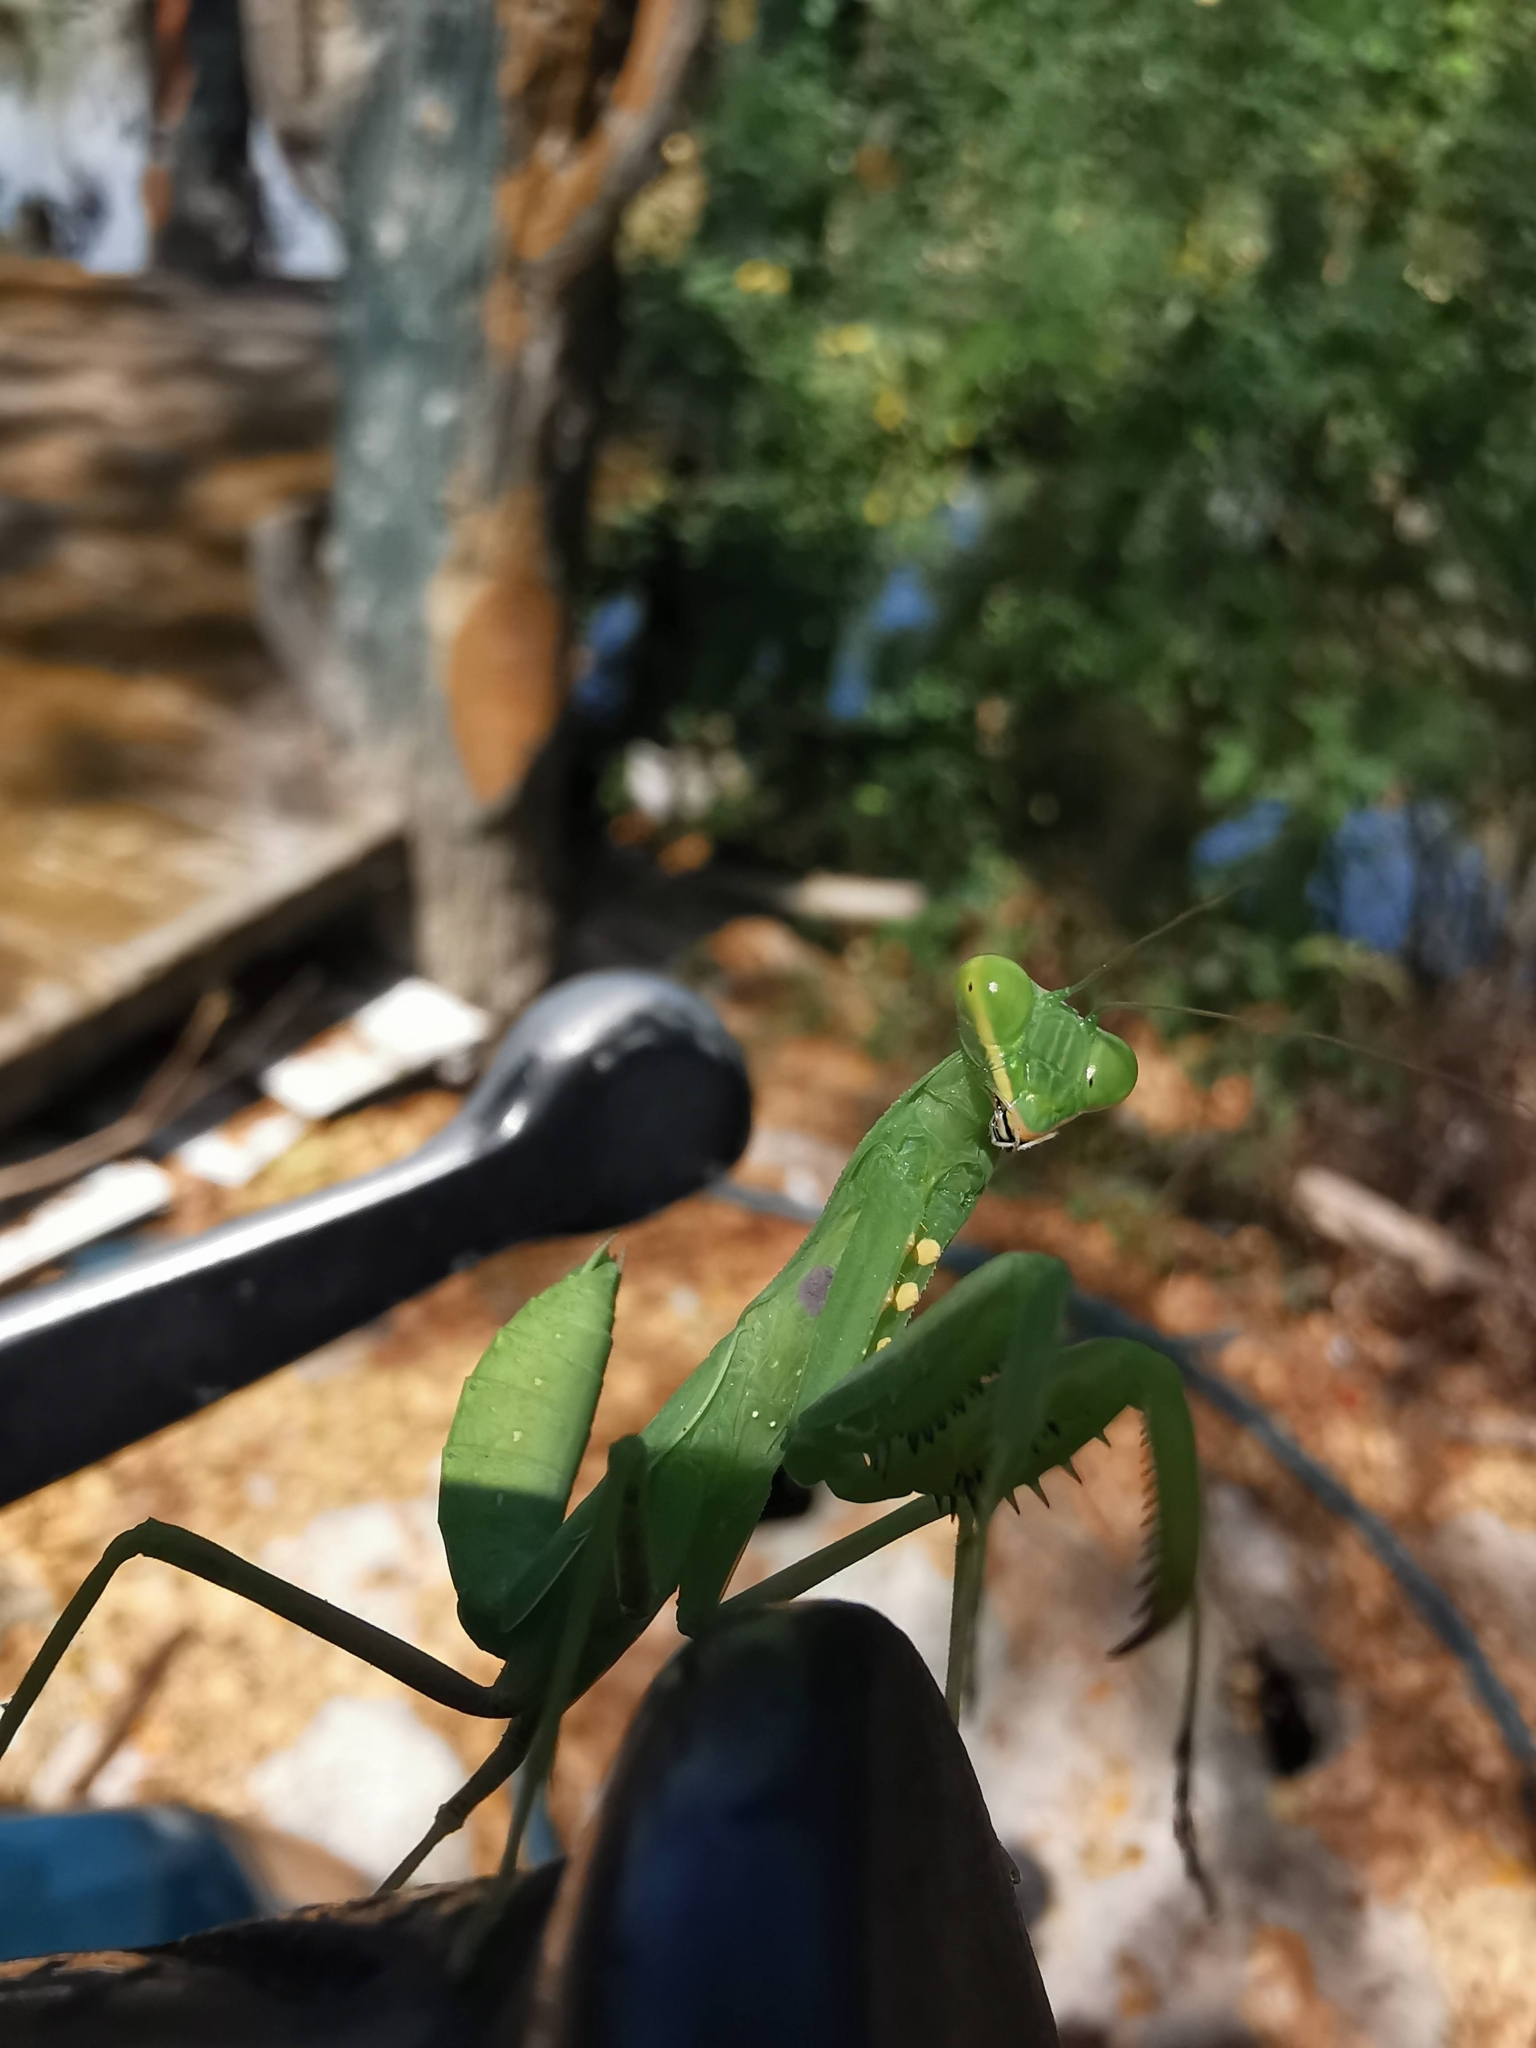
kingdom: Animalia
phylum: Arthropoda
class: Insecta
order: Mantodea
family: Mantidae
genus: Hierodula
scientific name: Hierodula patellifera
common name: Asian mantis
